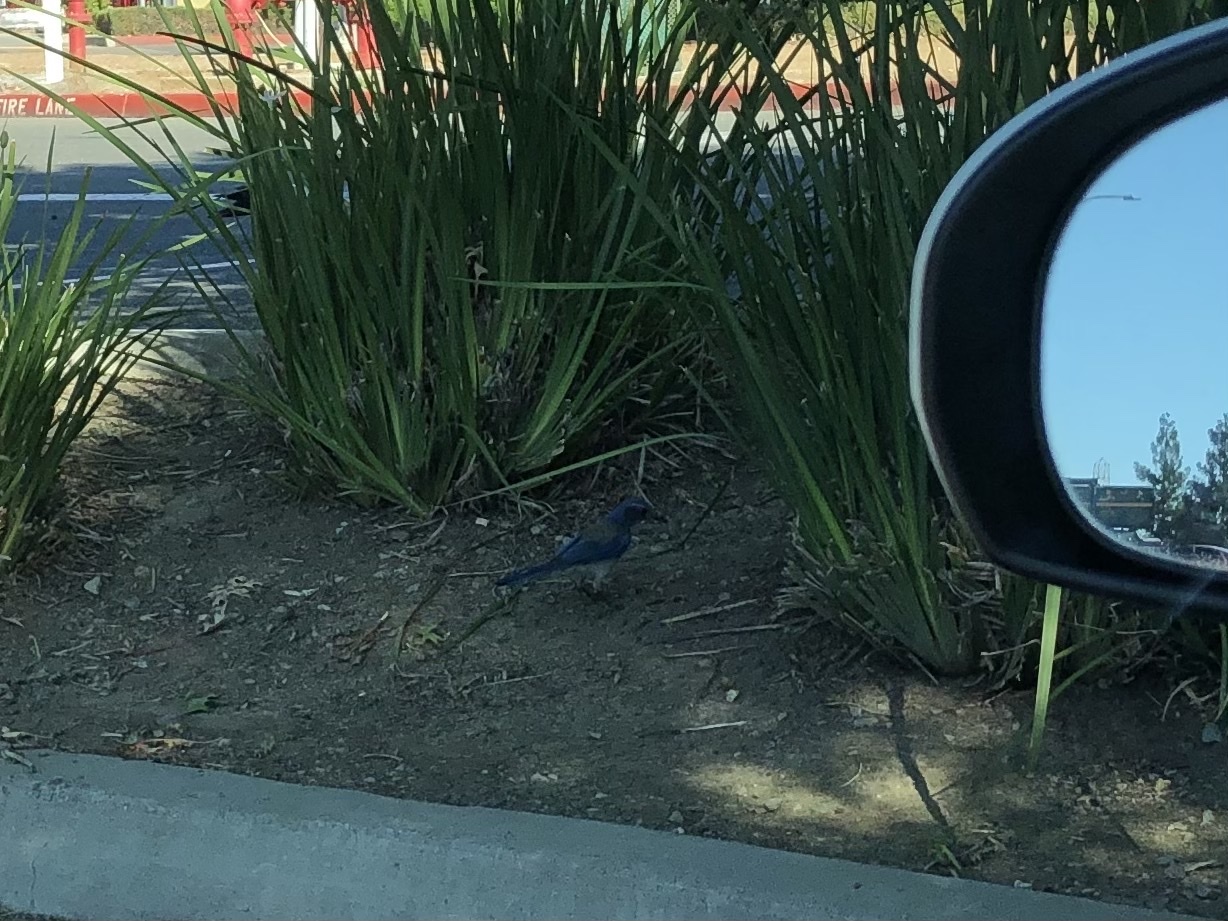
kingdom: Animalia
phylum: Chordata
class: Aves
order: Passeriformes
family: Corvidae
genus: Aphelocoma
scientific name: Aphelocoma californica
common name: California scrub-jay
